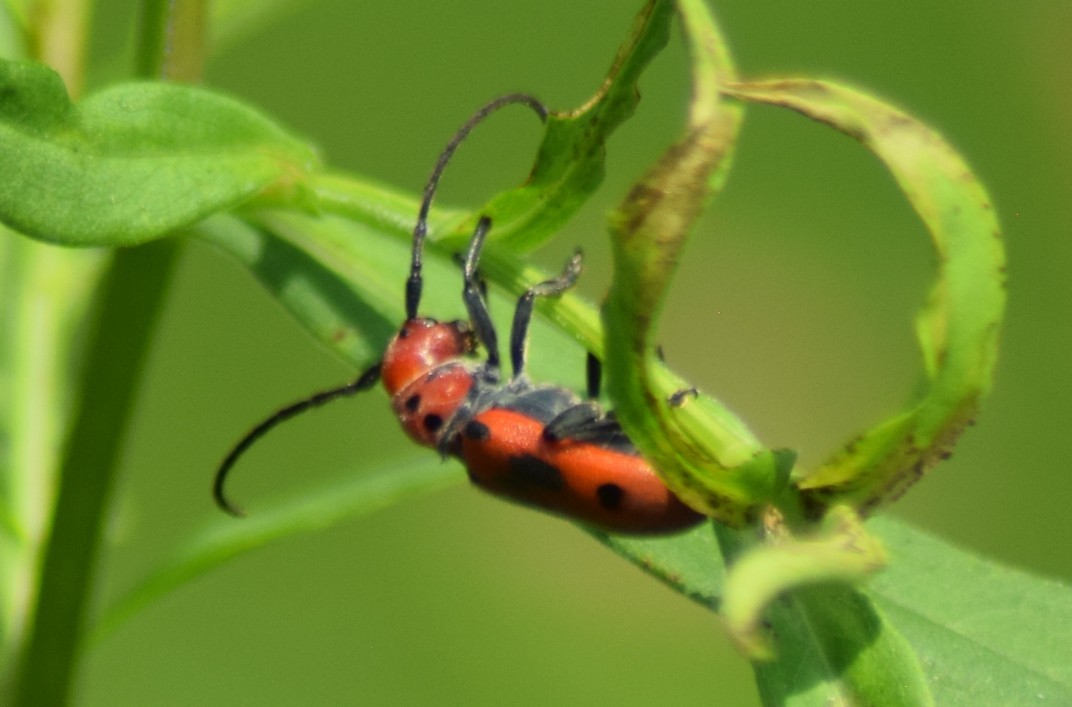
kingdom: Animalia
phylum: Arthropoda
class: Insecta
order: Coleoptera
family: Cerambycidae
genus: Tetraopes
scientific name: Tetraopes tetrophthalmus
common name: Red milkweed beetle
